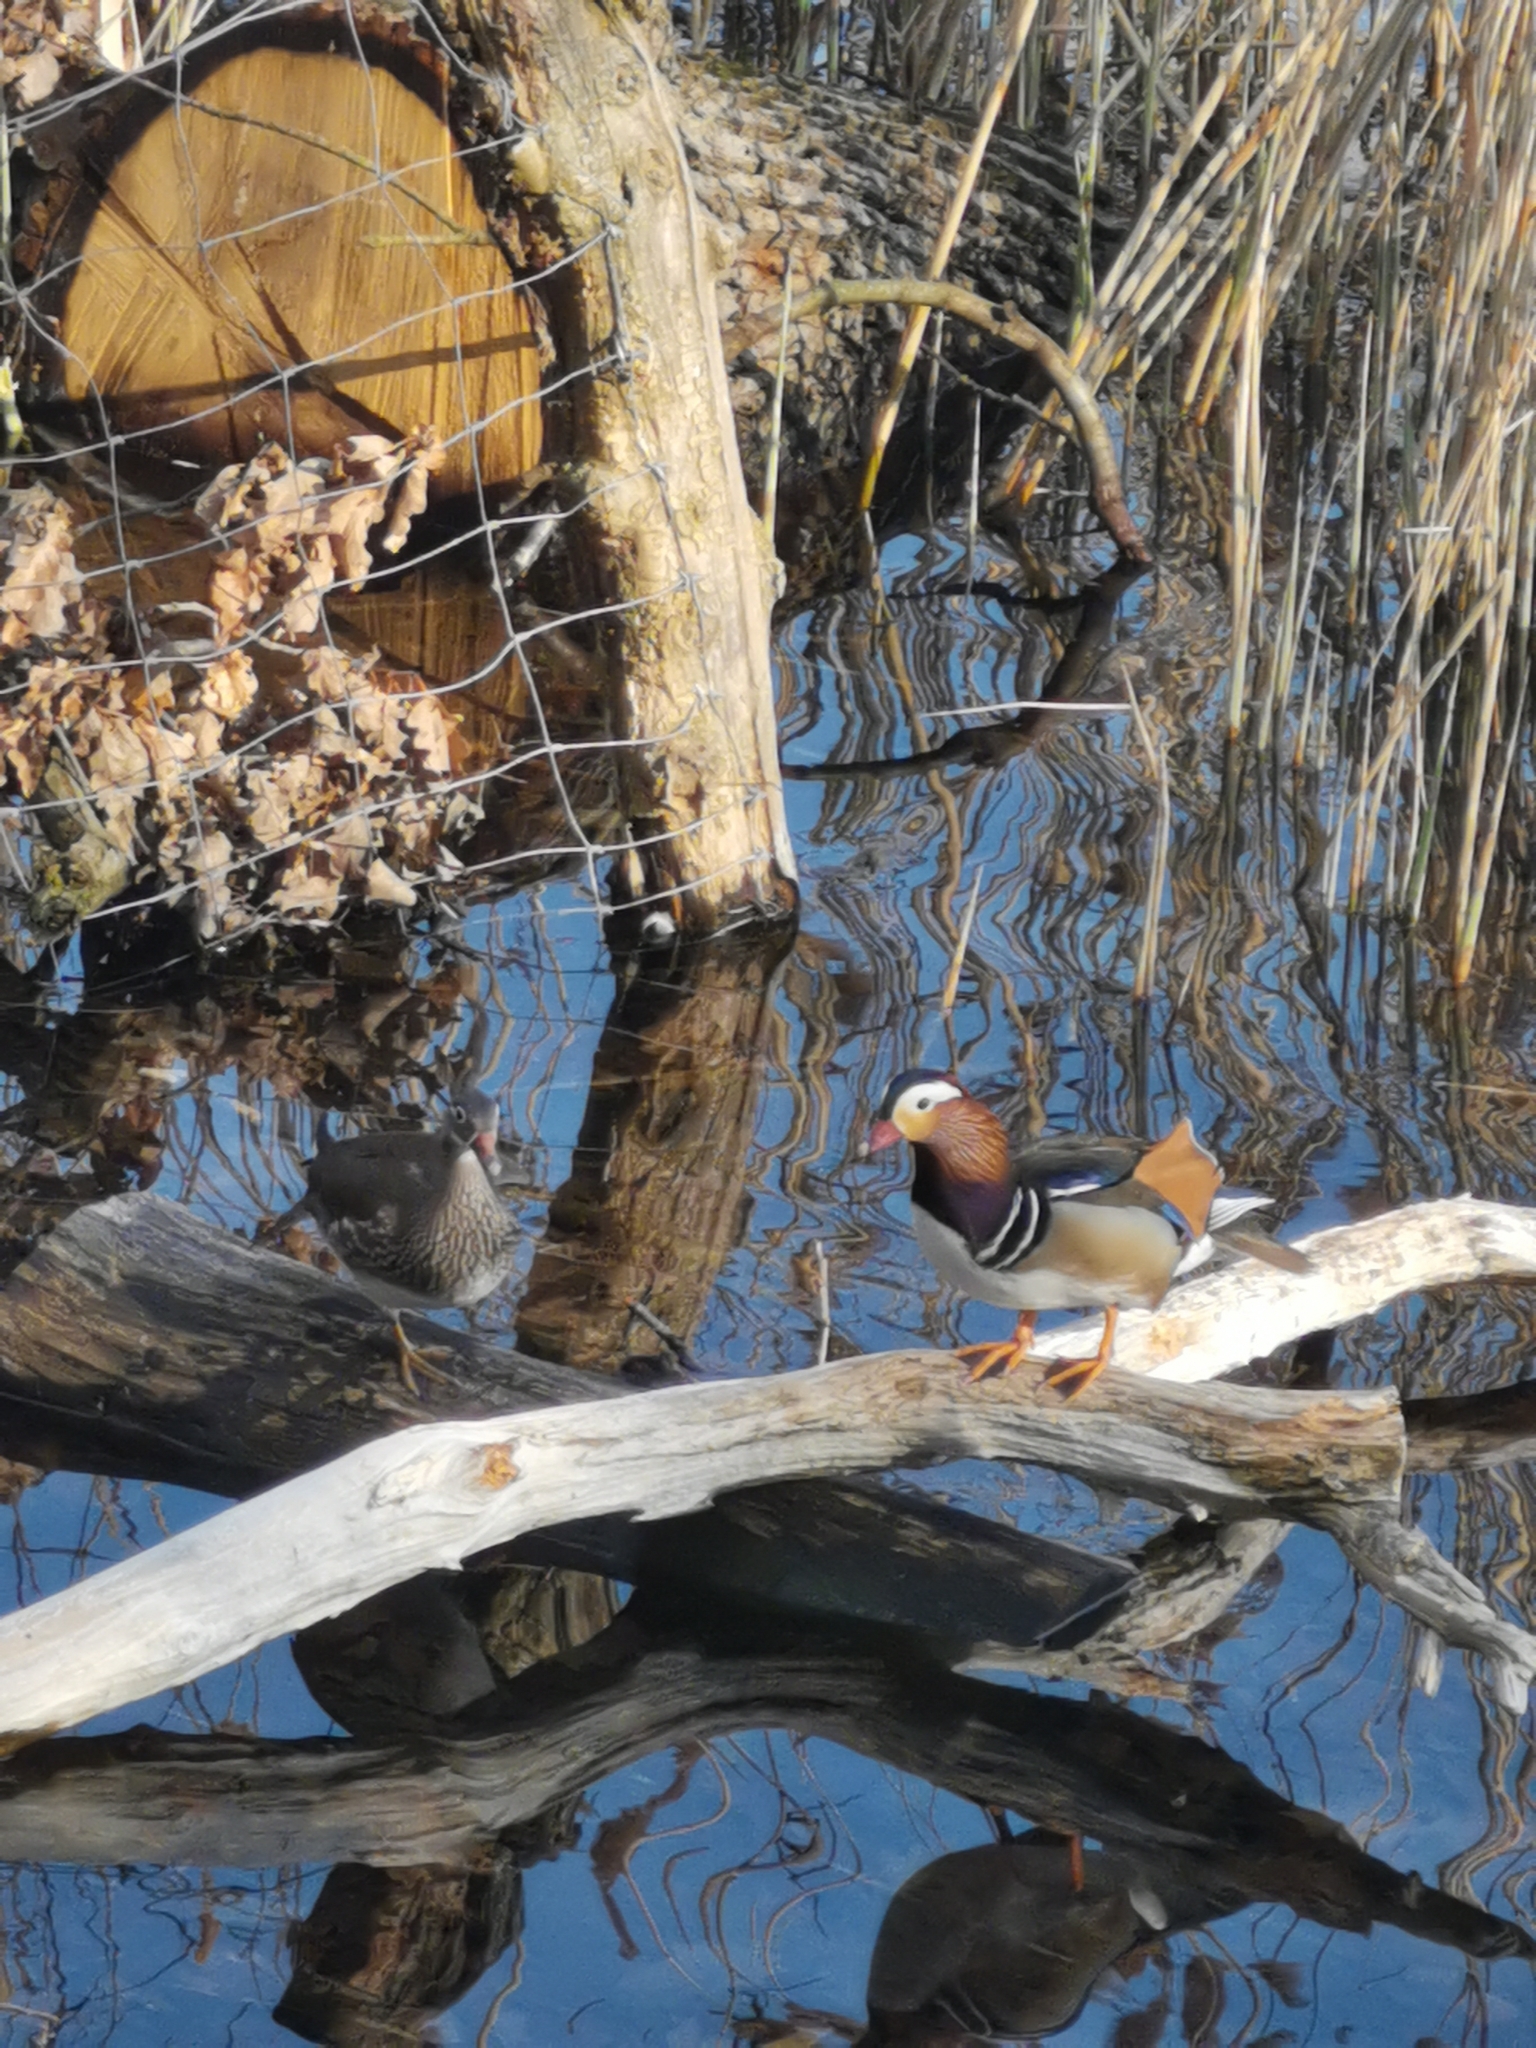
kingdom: Animalia
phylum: Chordata
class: Aves
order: Anseriformes
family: Anatidae
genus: Aix
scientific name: Aix galericulata
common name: Mandarin duck
